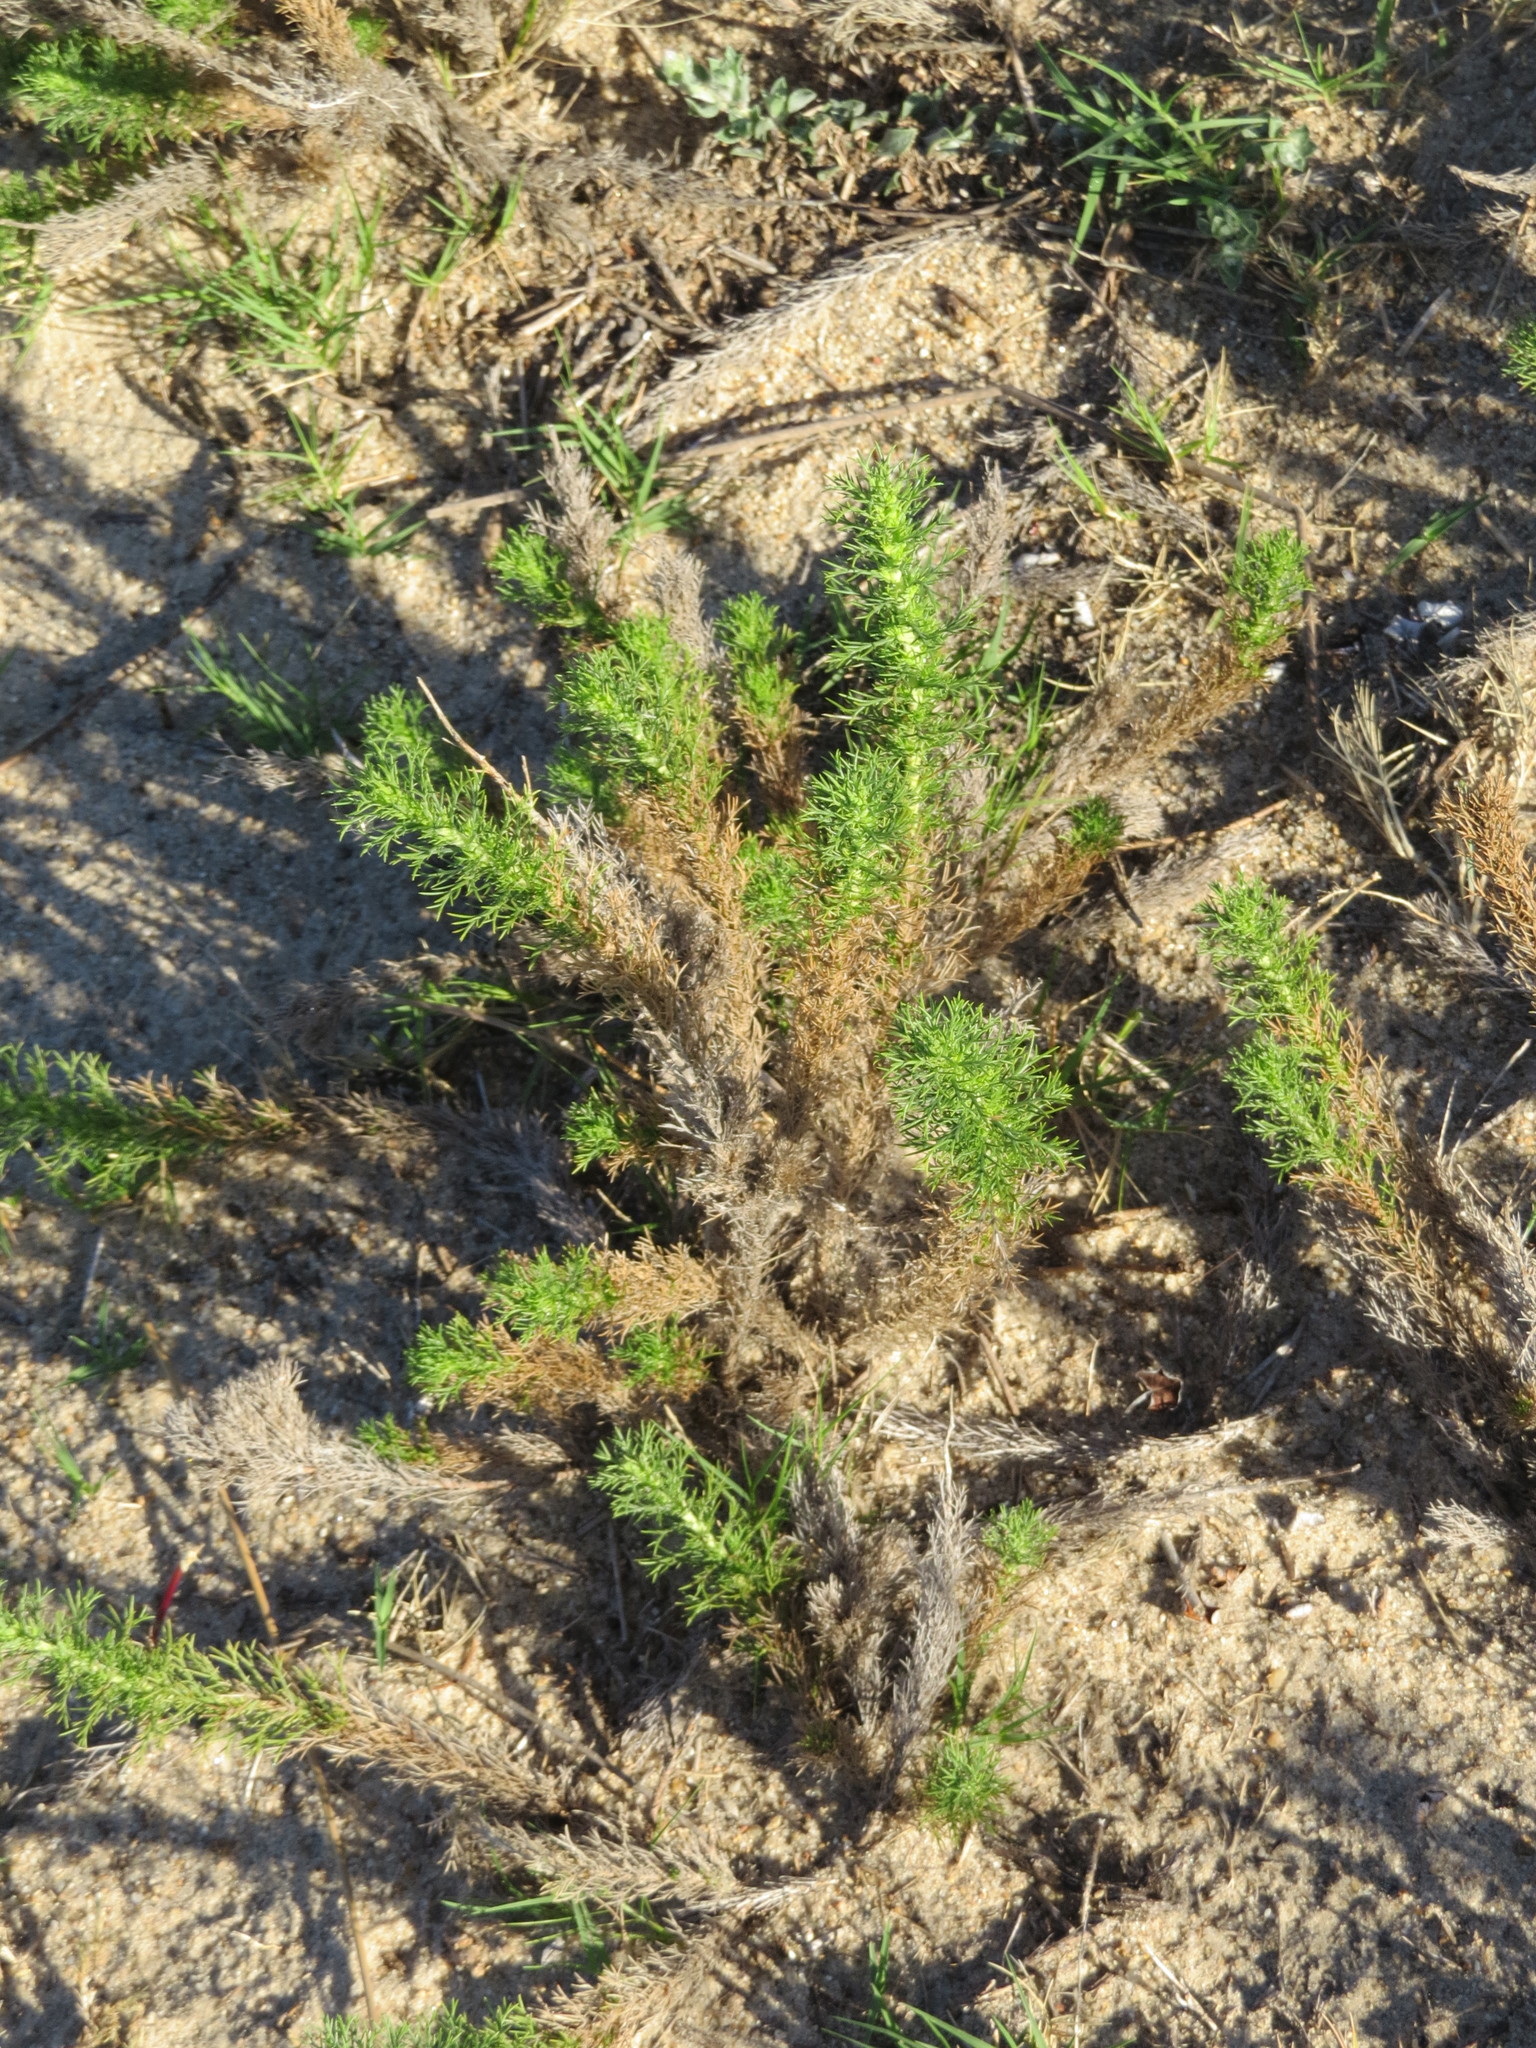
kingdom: Plantae
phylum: Tracheophyta
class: Magnoliopsida
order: Asterales
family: Asteraceae
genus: Sommerfeltia
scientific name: Sommerfeltia spinulosa
